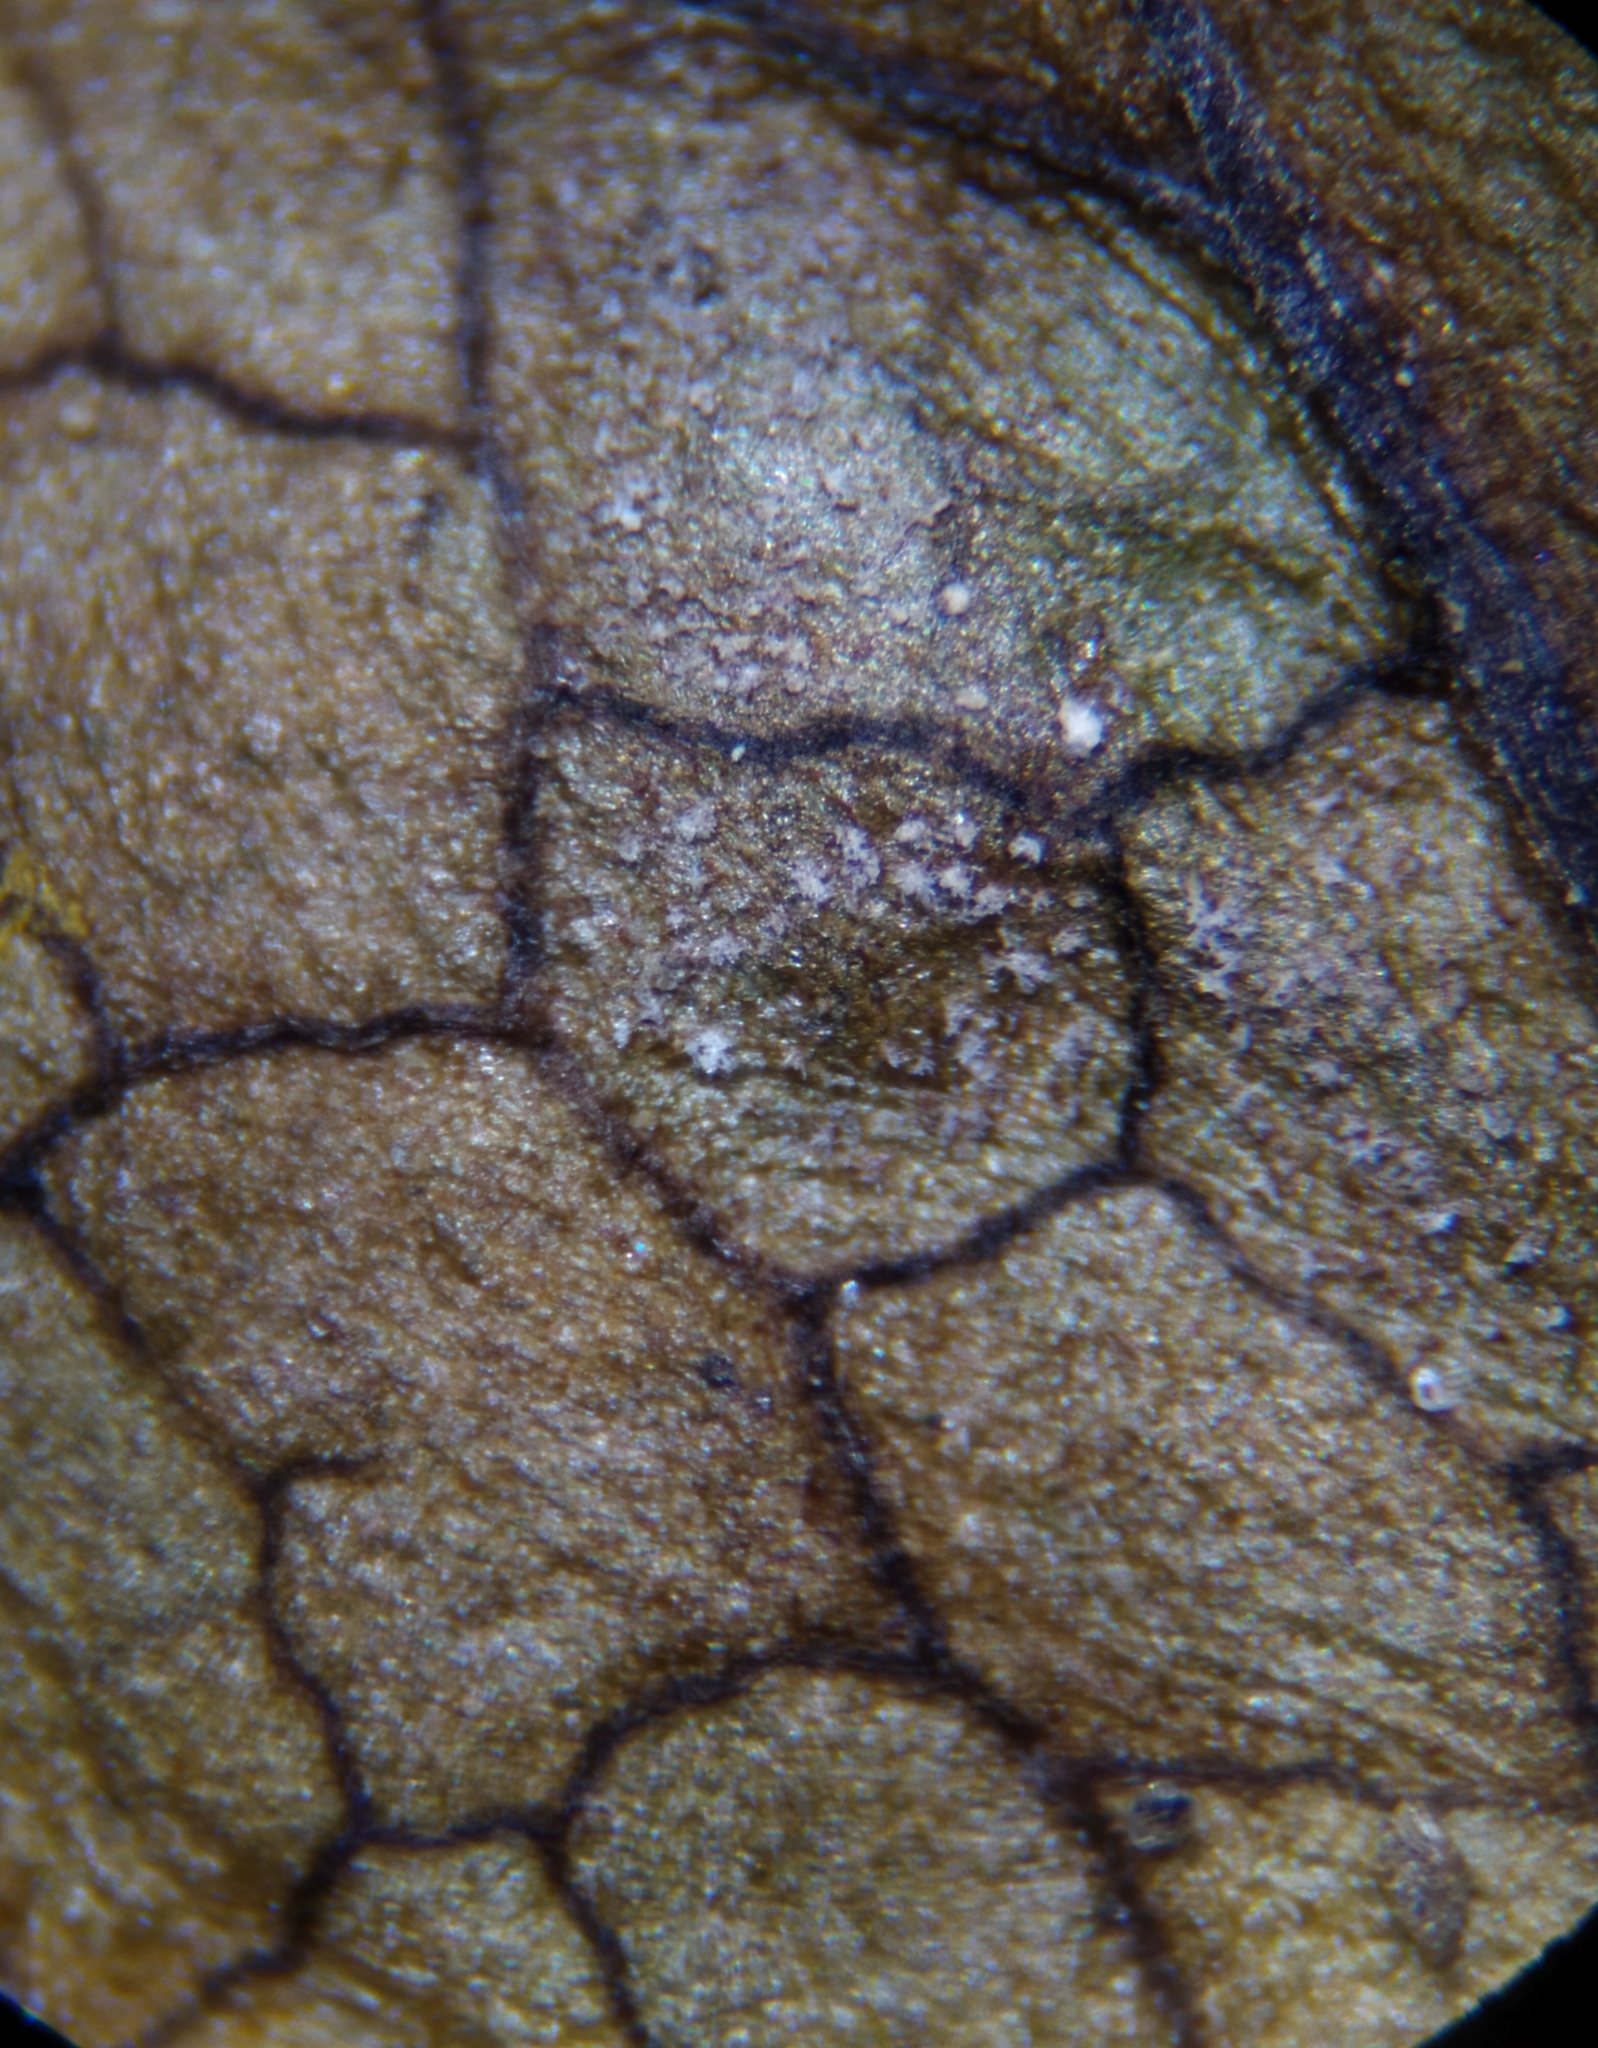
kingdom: Fungi
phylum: Ascomycota
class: Dothideomycetes
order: Mycosphaerellales
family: Mycosphaerellaceae
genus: Ramularia
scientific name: Ramularia oreophila
